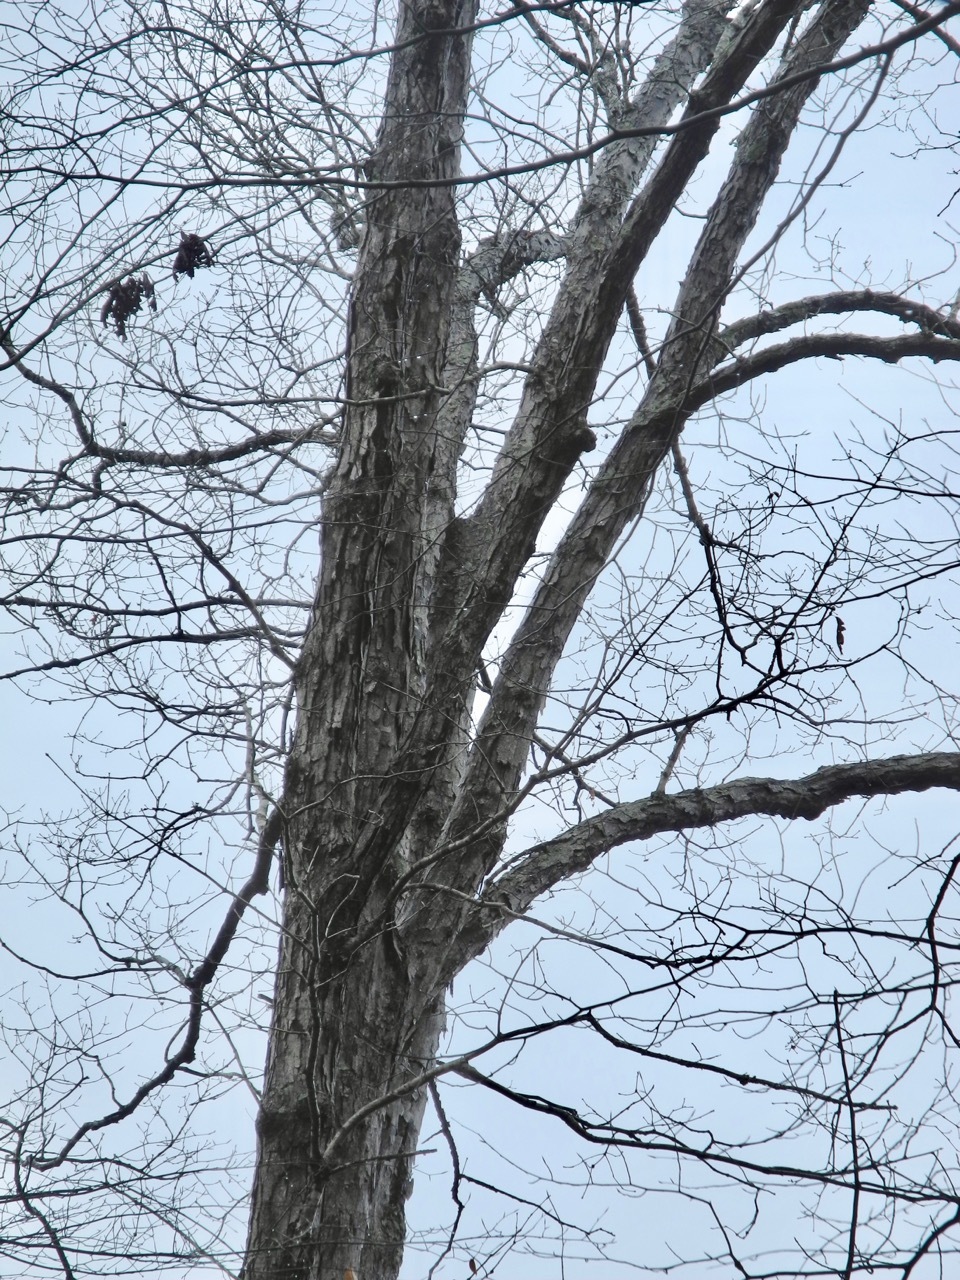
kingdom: Plantae
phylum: Tracheophyta
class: Magnoliopsida
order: Fagales
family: Fagaceae
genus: Quercus
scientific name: Quercus alba
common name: White oak
